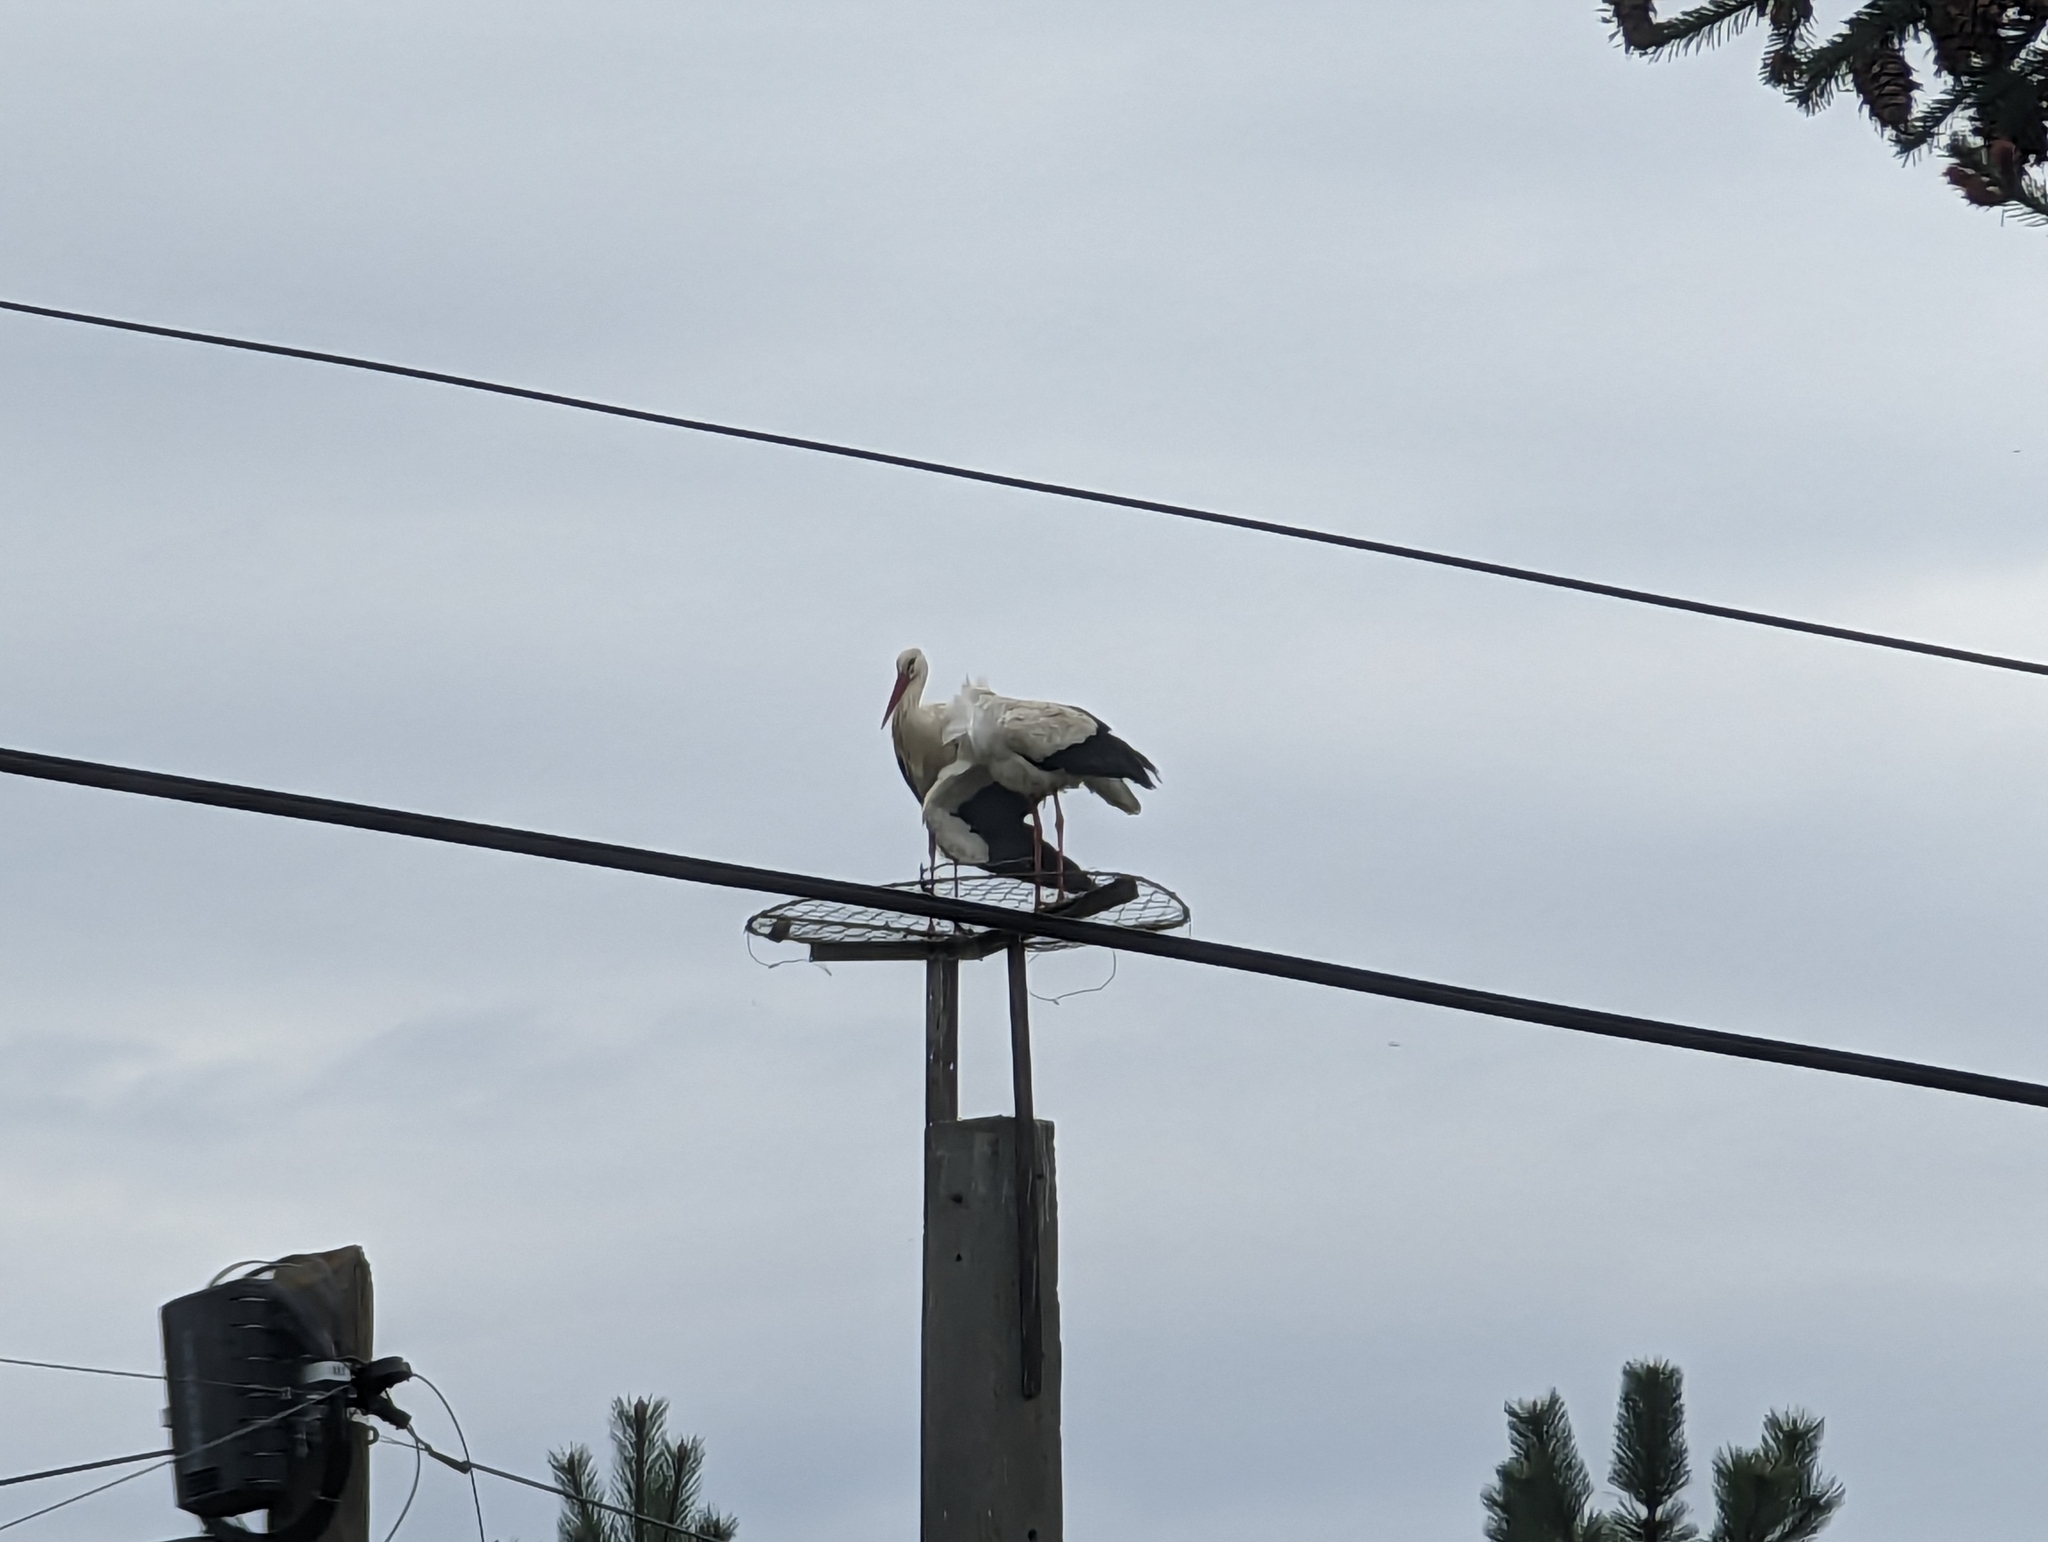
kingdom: Animalia
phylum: Chordata
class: Aves
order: Ciconiiformes
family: Ciconiidae
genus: Ciconia
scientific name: Ciconia ciconia
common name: White stork
